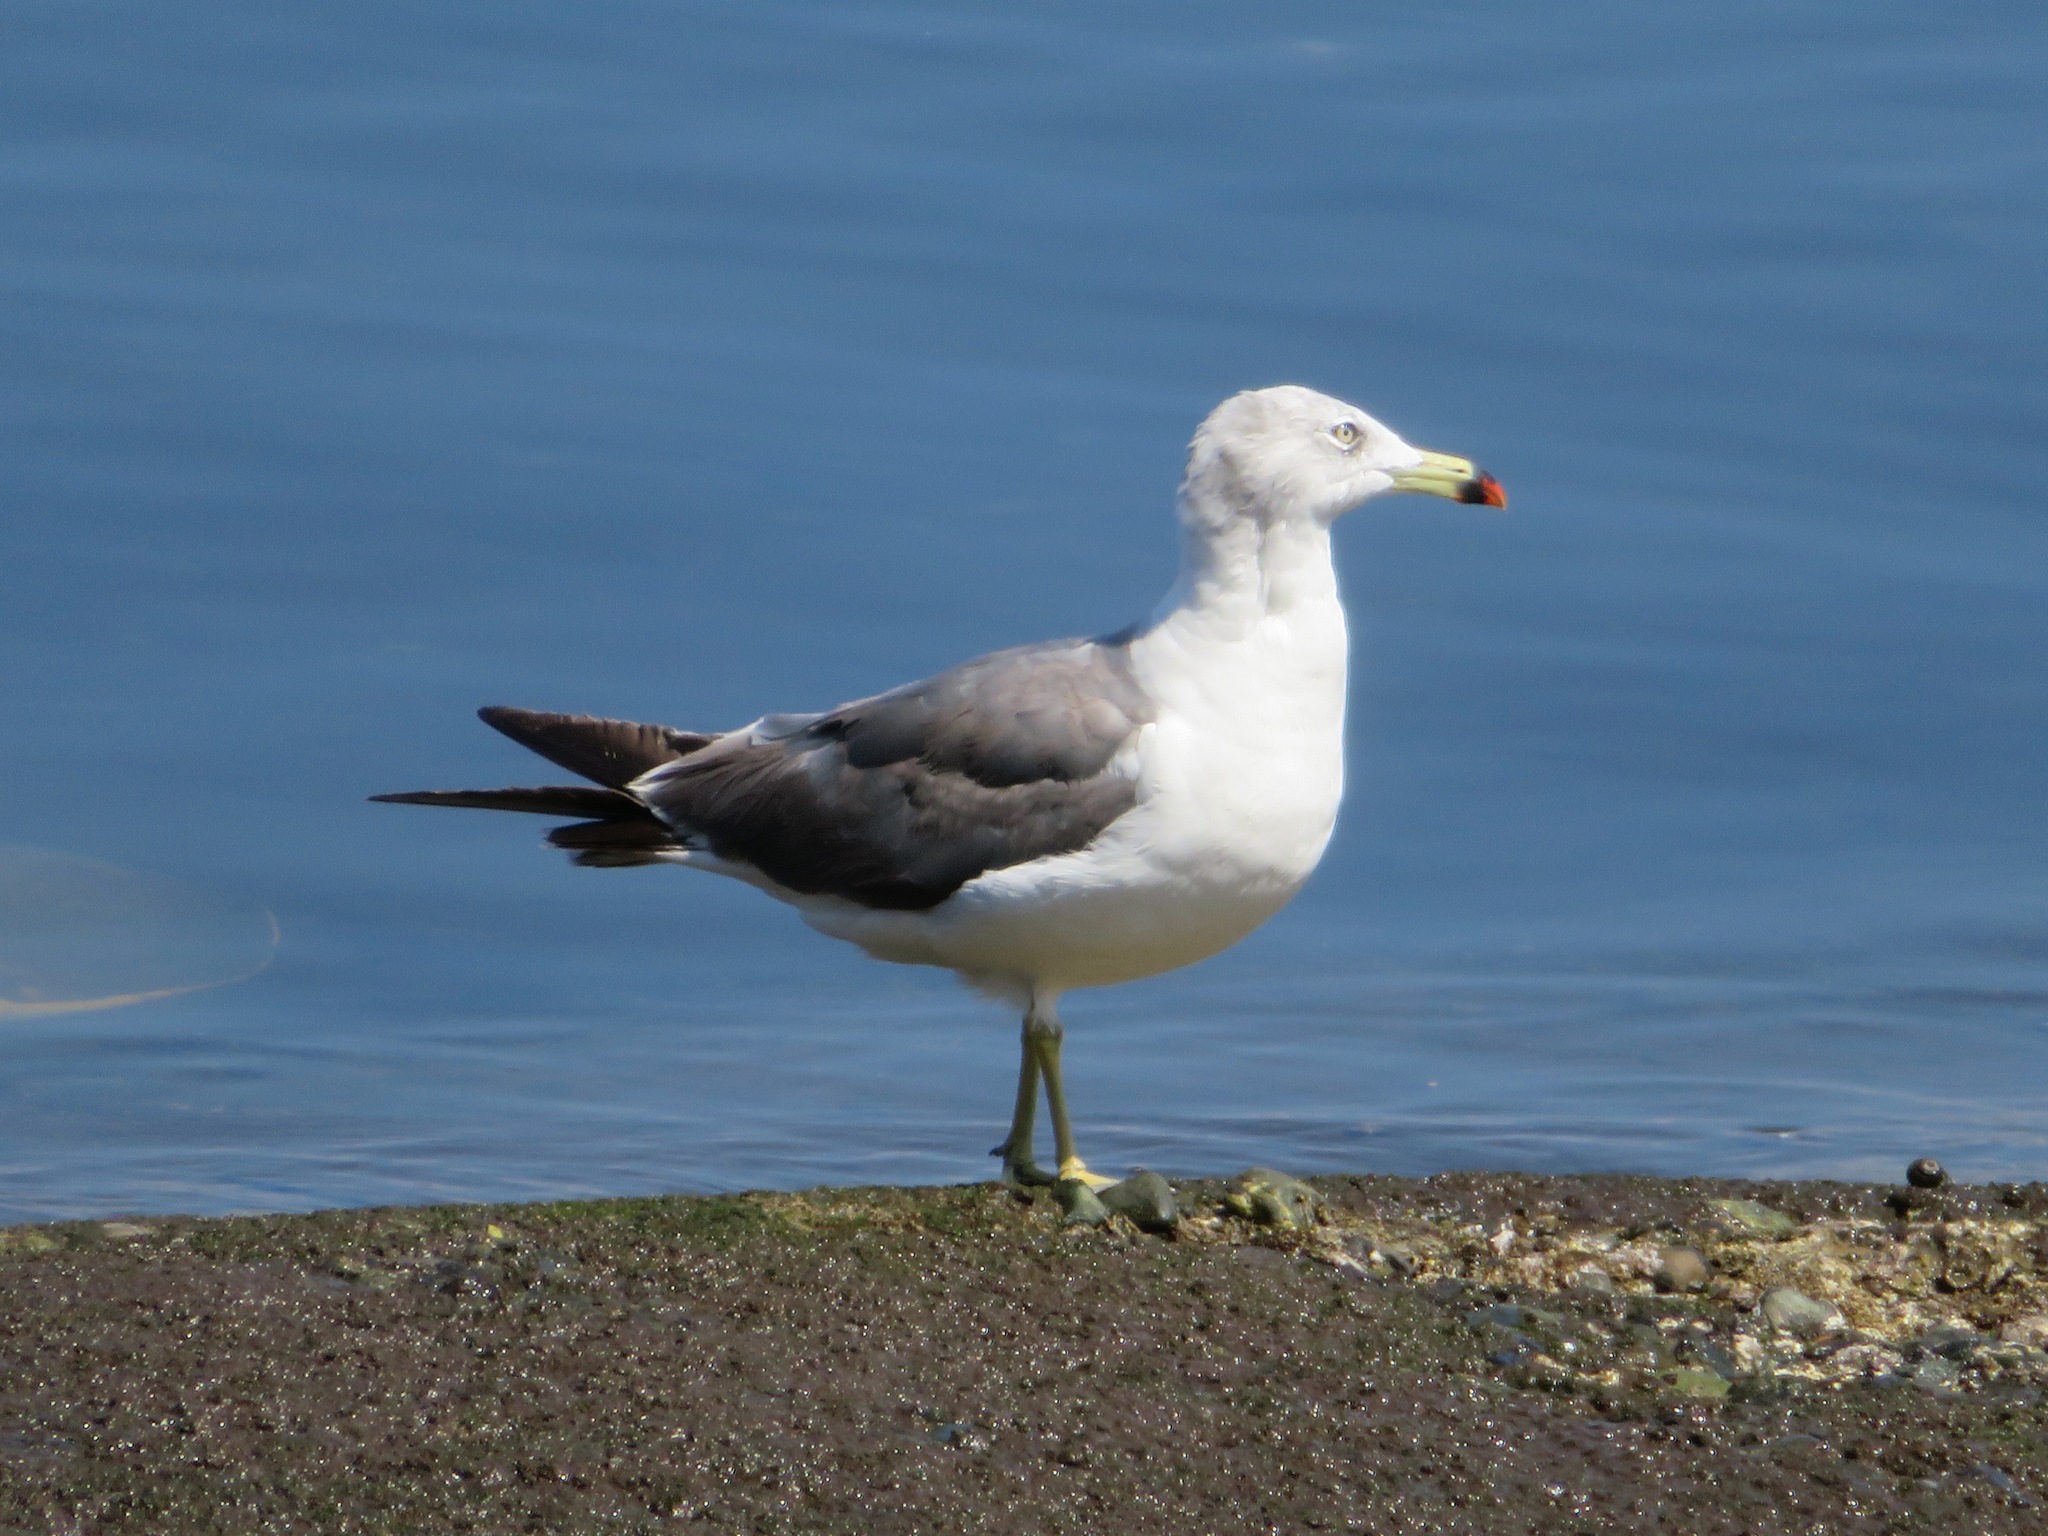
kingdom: Animalia
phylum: Chordata
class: Aves
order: Charadriiformes
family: Laridae
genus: Larus
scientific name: Larus crassirostris
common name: Black-tailed gull
